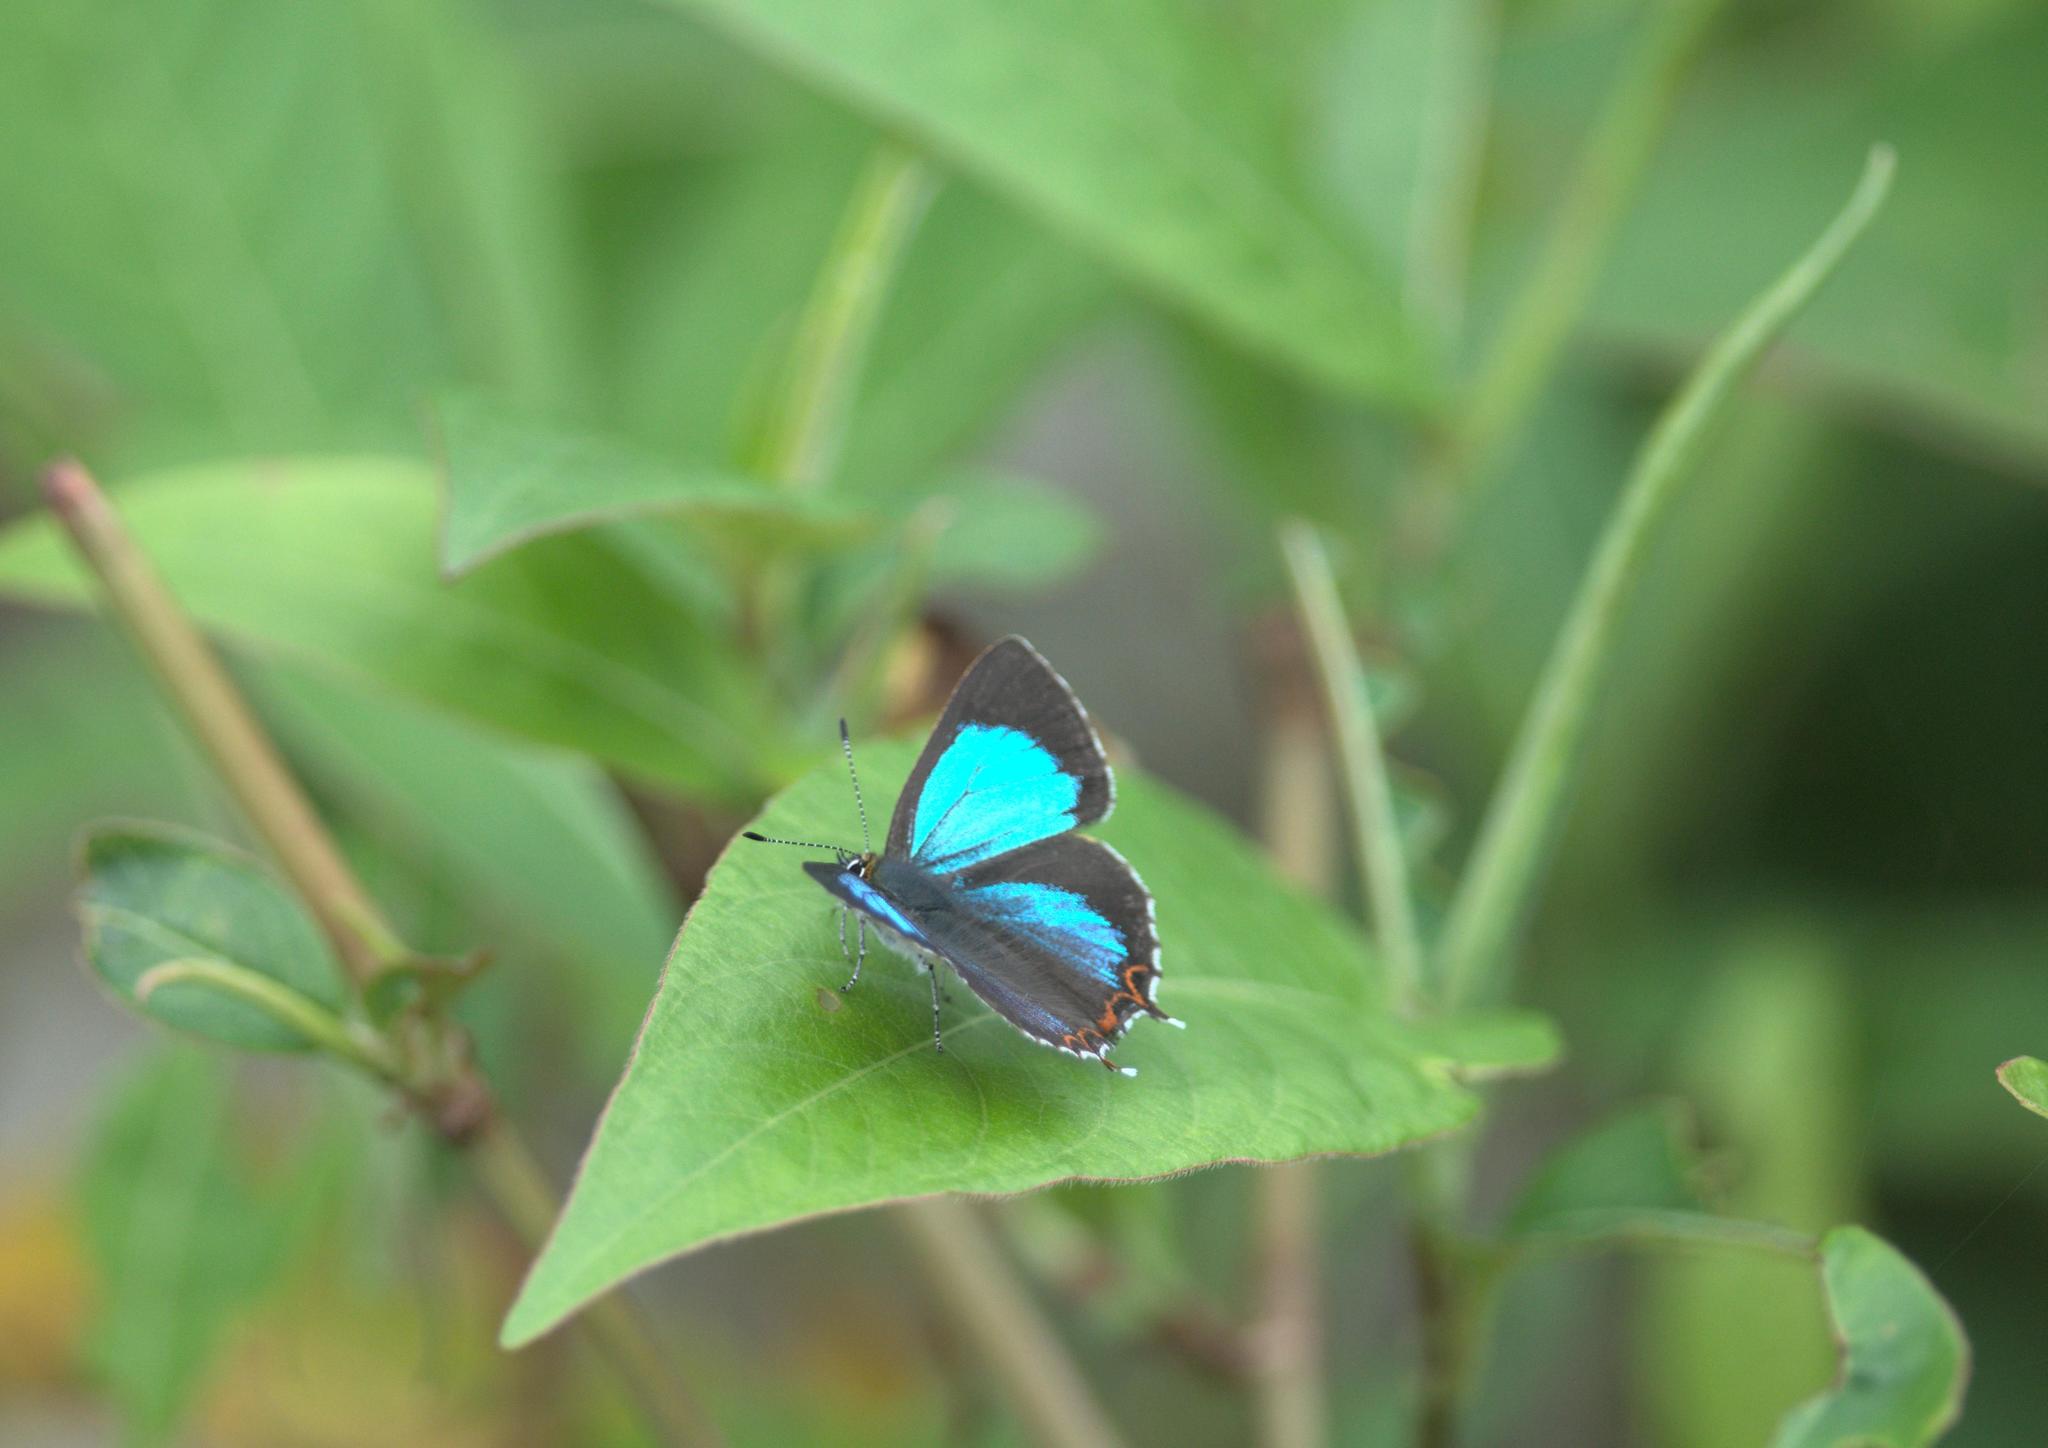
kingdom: Animalia
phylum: Arthropoda
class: Insecta
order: Lepidoptera
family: Lycaenidae
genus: Heliophorus
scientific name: Heliophorus
